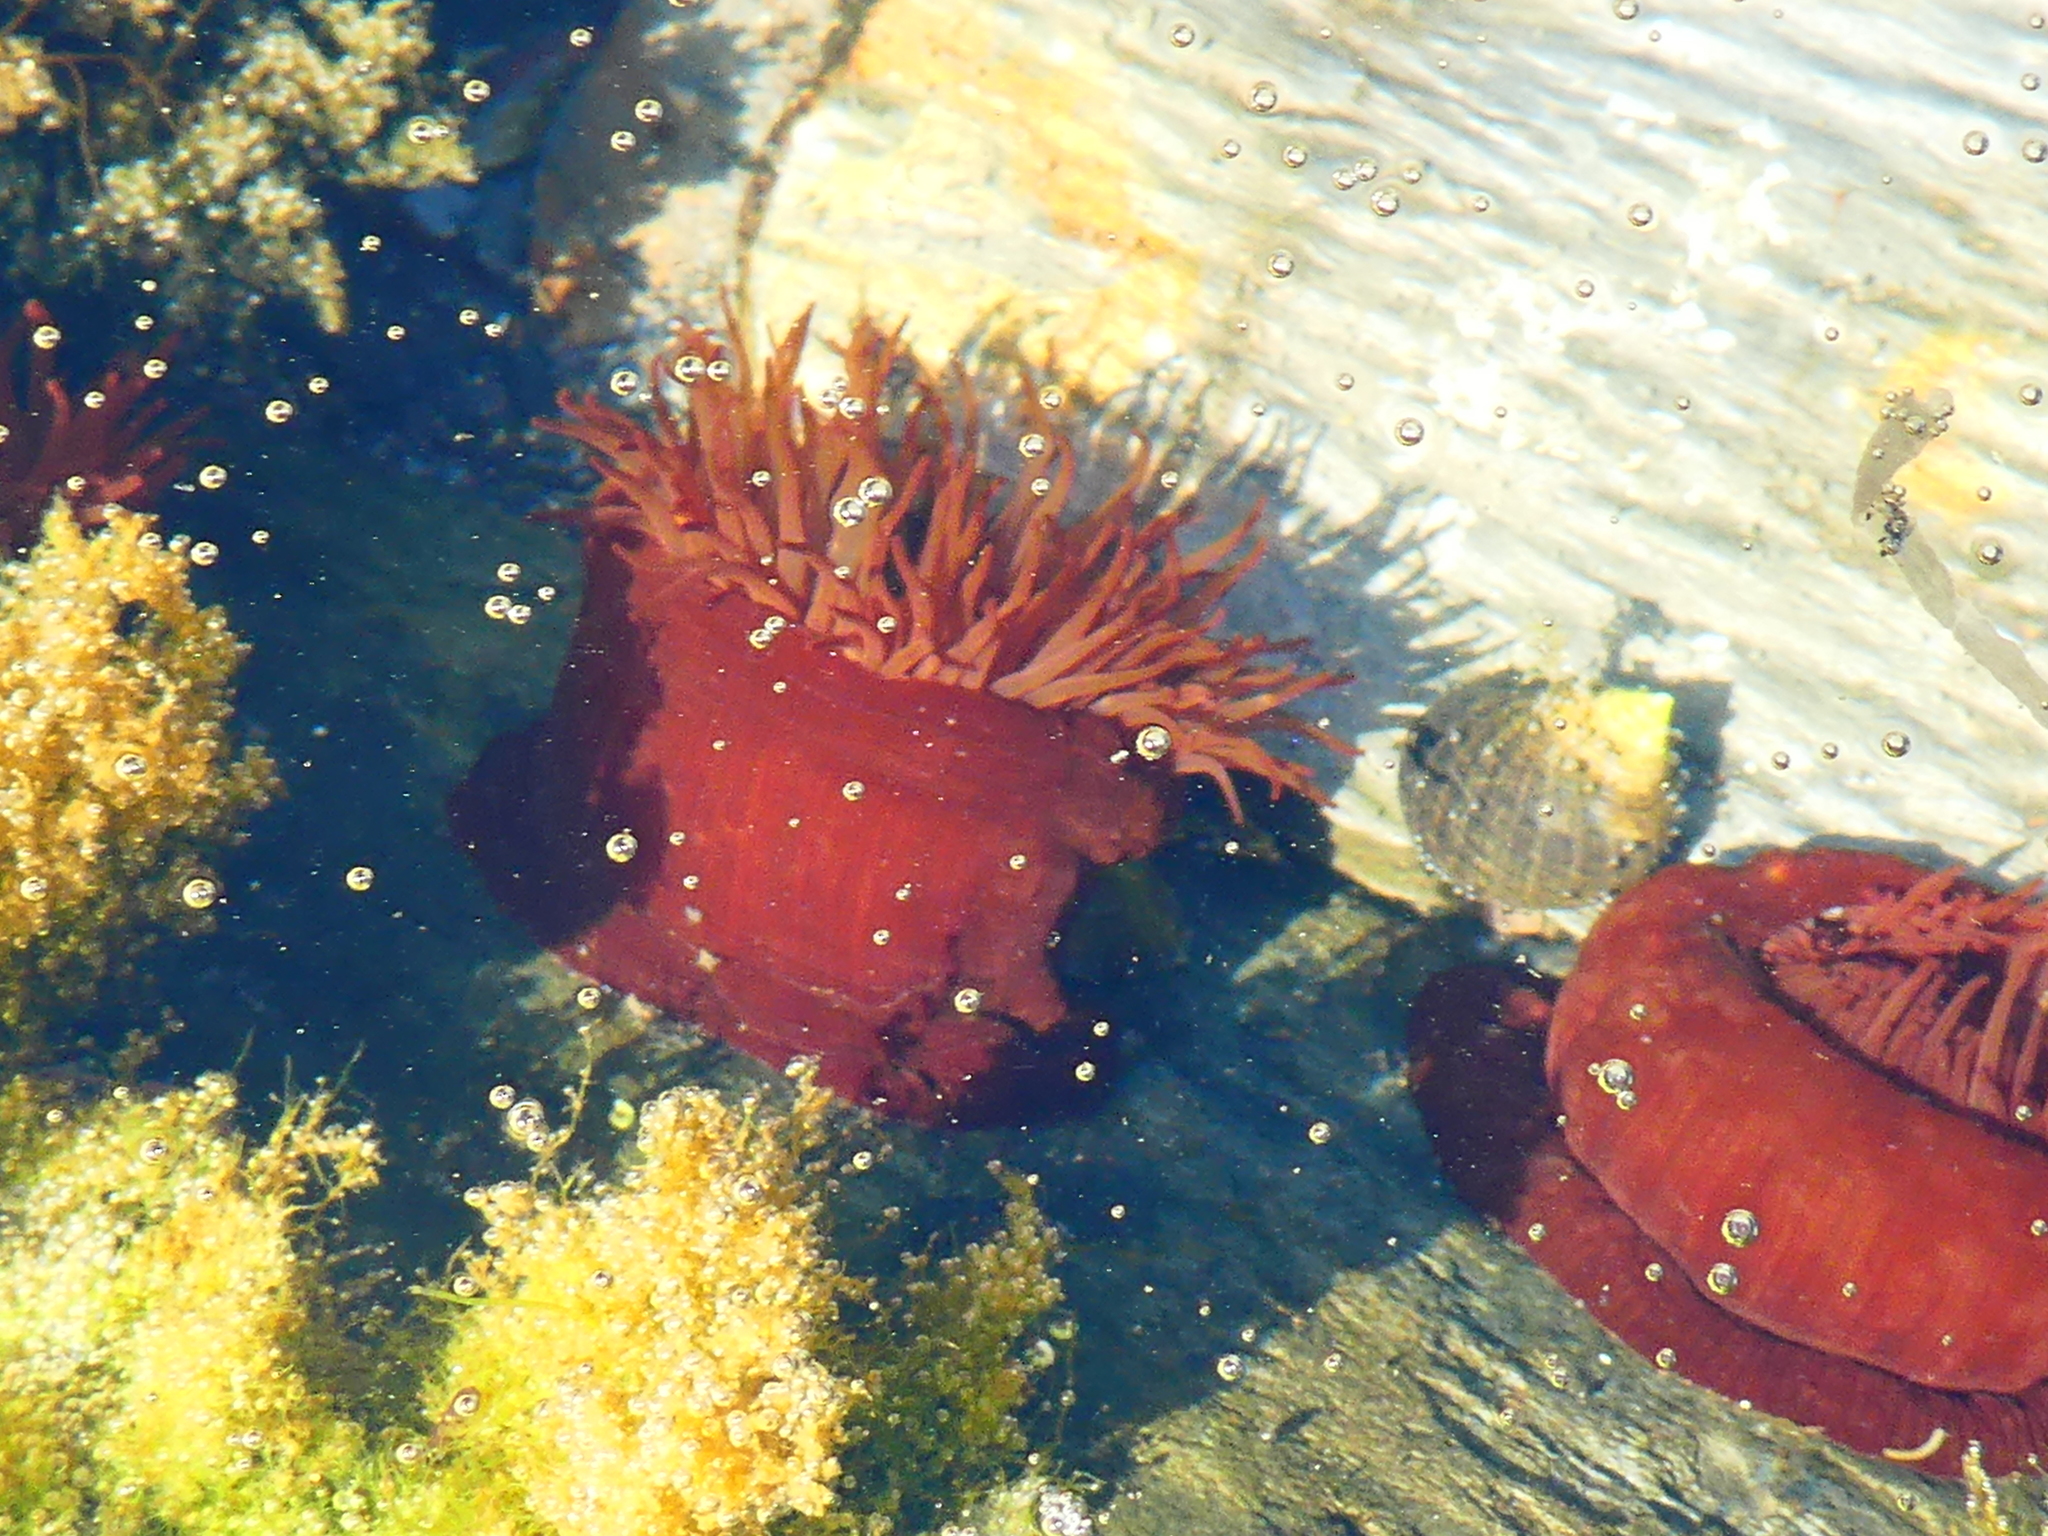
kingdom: Animalia
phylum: Cnidaria
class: Anthozoa
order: Actiniaria
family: Actiniidae
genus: Actinia
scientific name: Actinia equina
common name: Beadlet anemone
